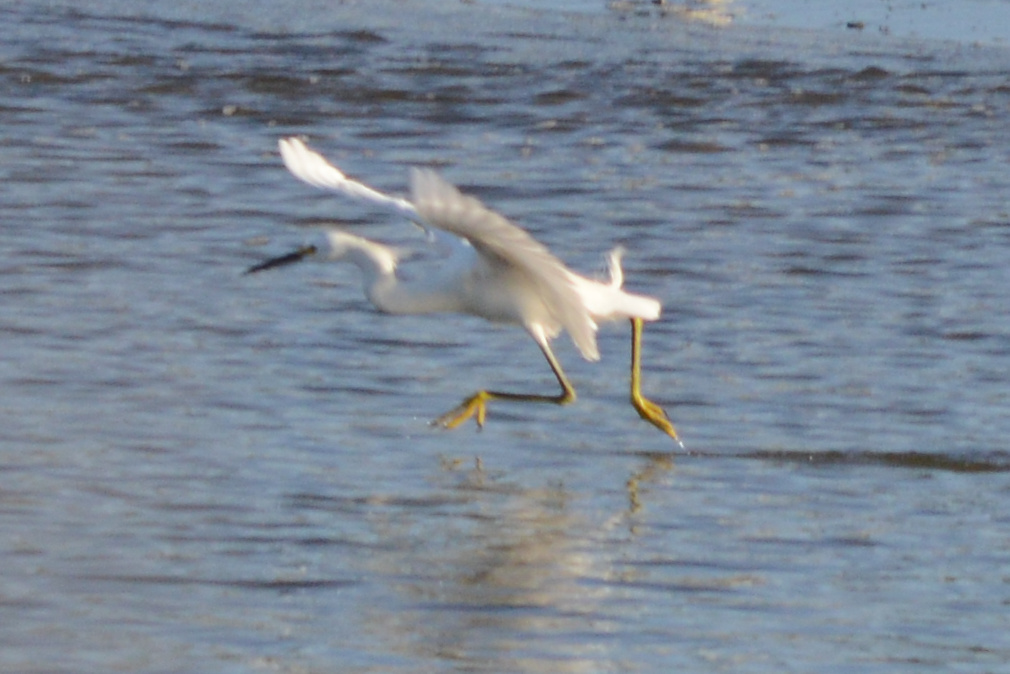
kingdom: Animalia
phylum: Chordata
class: Aves
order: Pelecaniformes
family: Ardeidae
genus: Egretta
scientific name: Egretta thula
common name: Snowy egret
